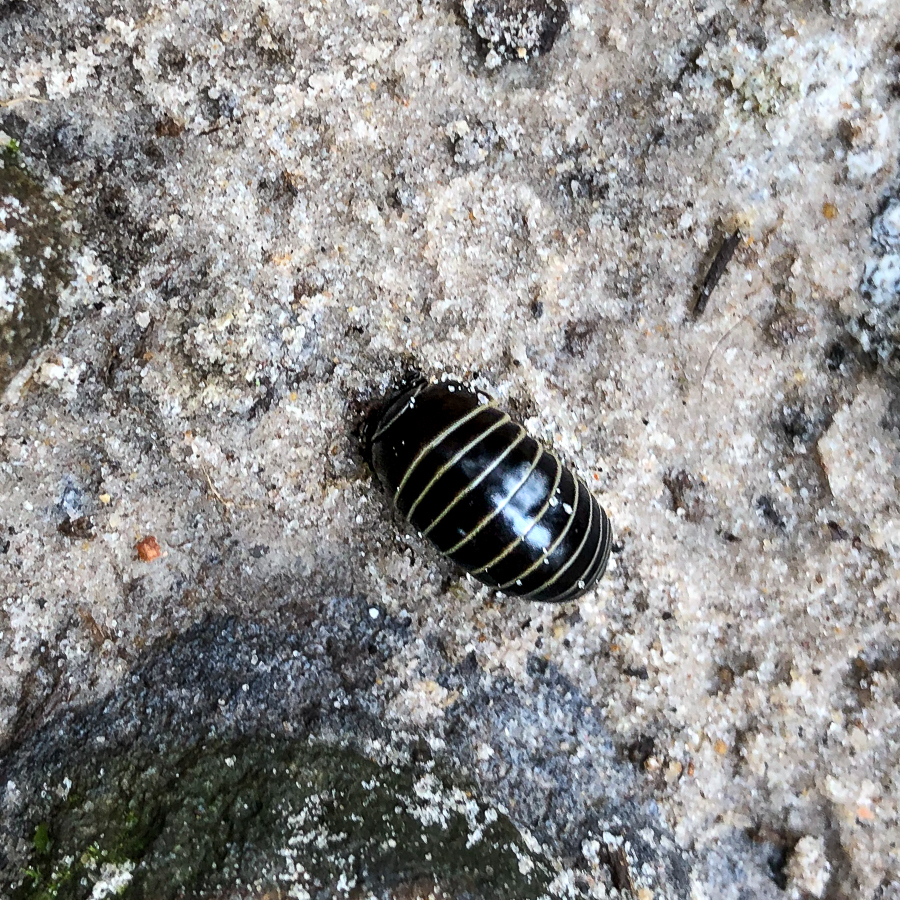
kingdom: Animalia
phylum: Arthropoda
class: Diplopoda
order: Glomerida
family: Glomeridae
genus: Glomeris
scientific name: Glomeris marginata
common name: Bordered pill millipede
